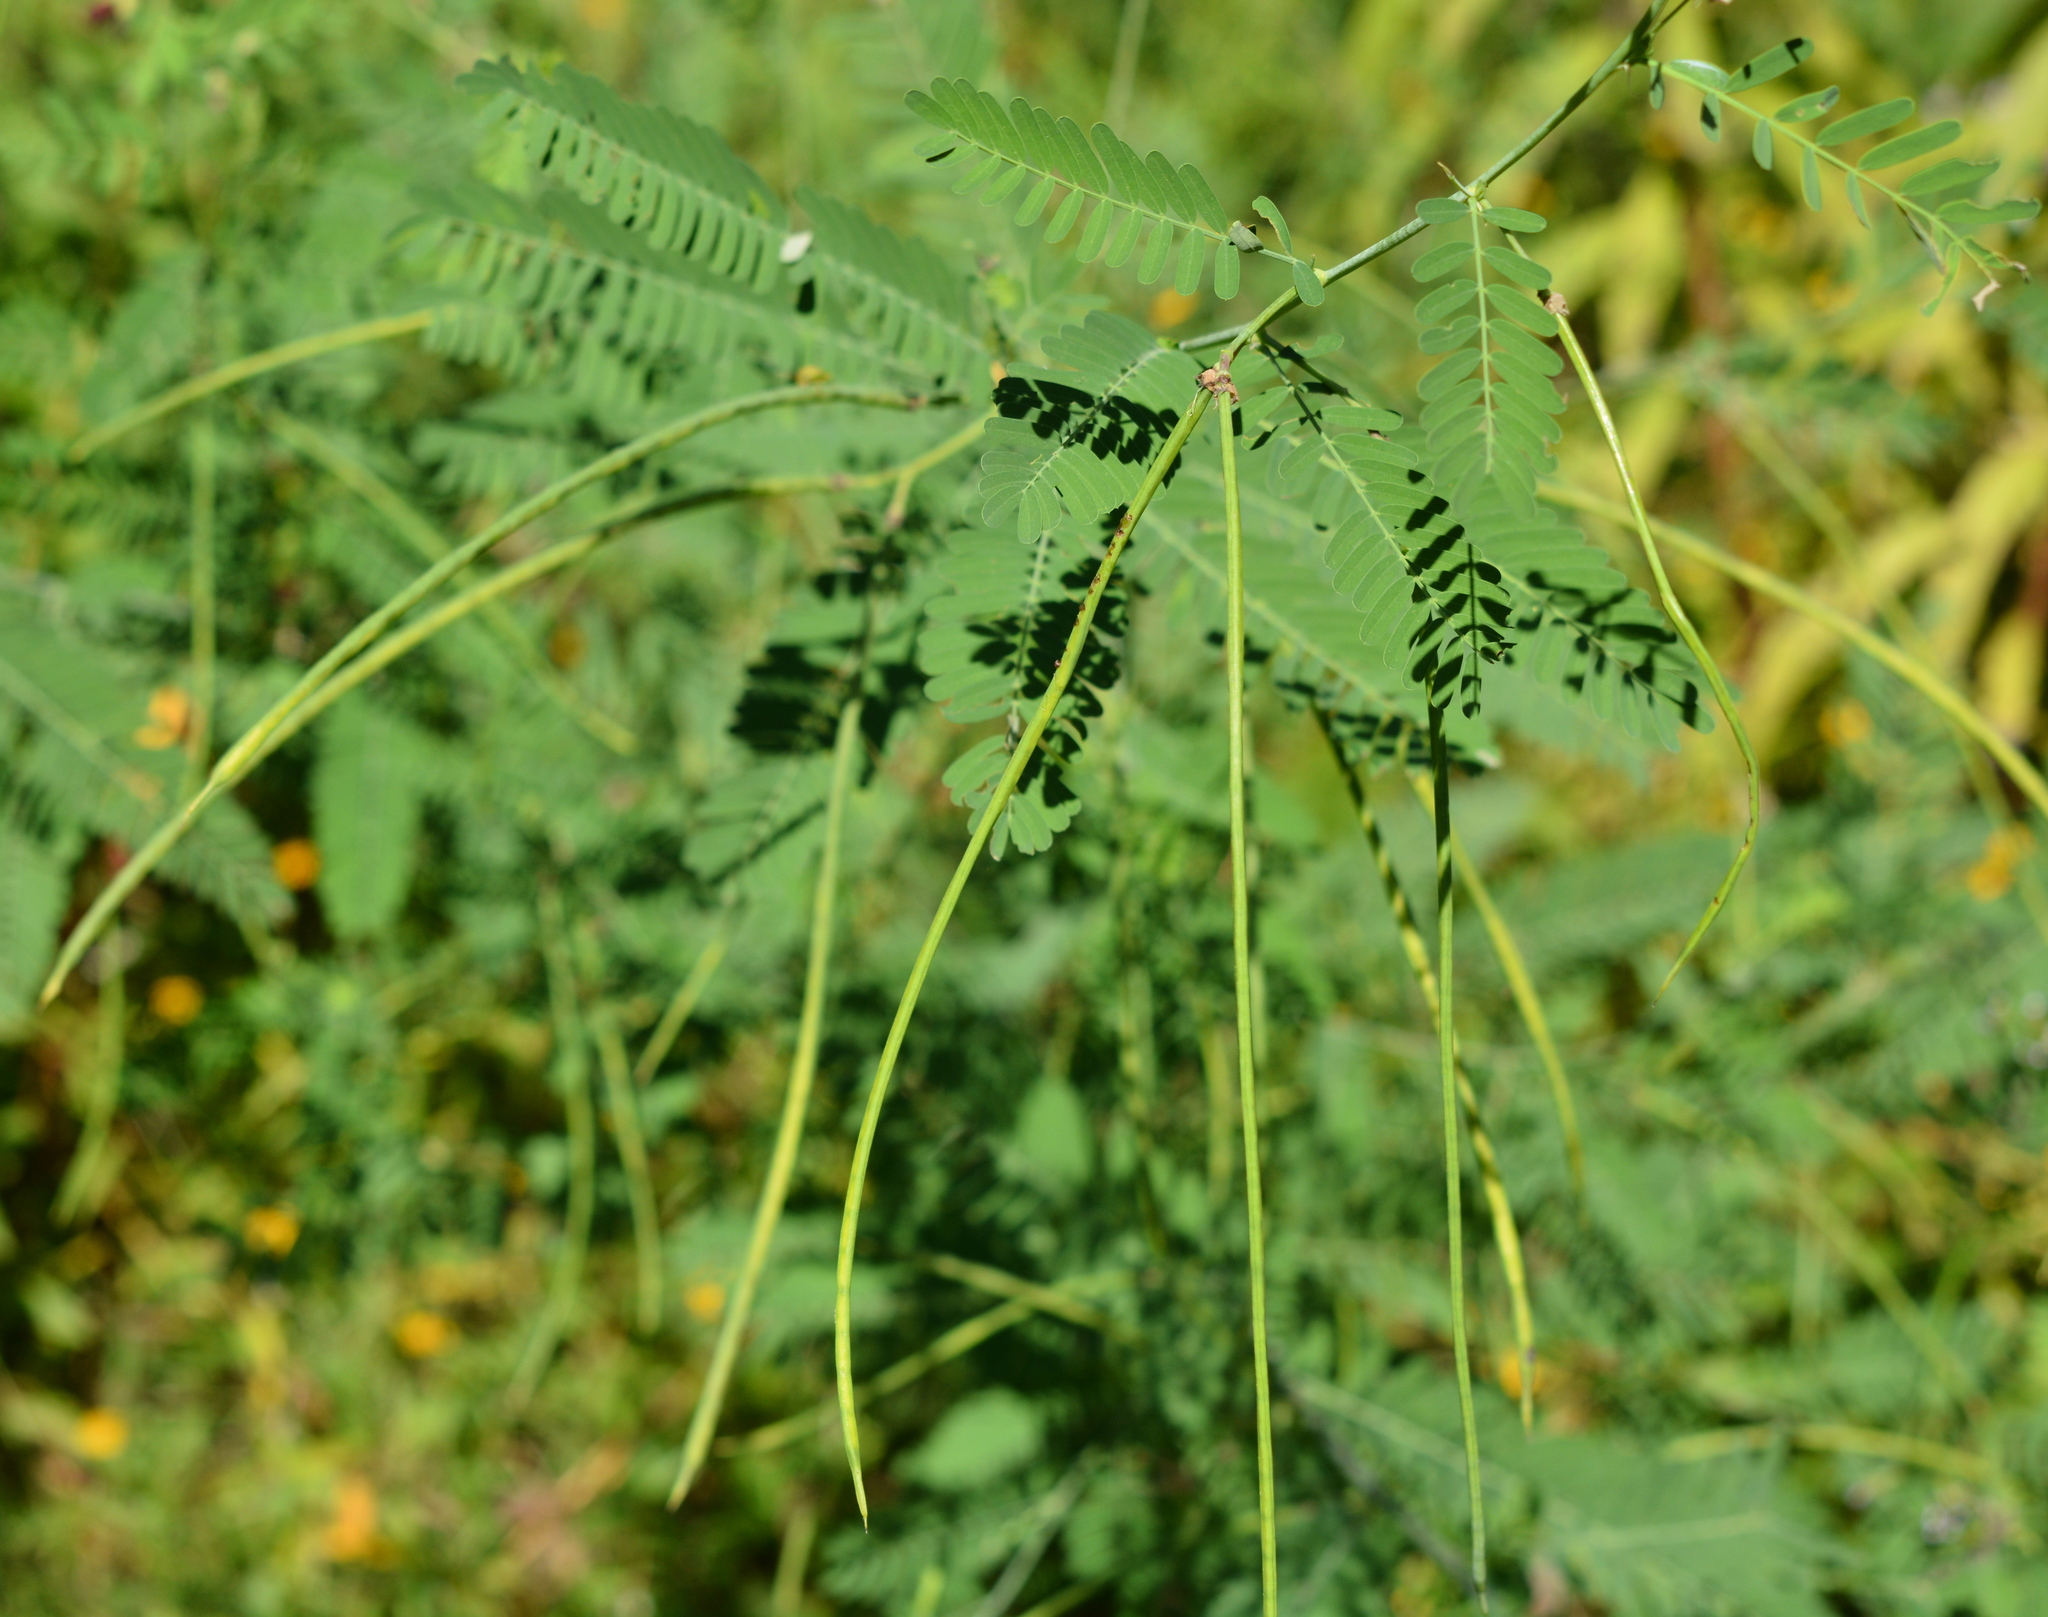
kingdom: Plantae
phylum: Tracheophyta
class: Magnoliopsida
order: Fabales
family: Fabaceae
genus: Sesbania
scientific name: Sesbania herbacea
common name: Bigpod sesbania
